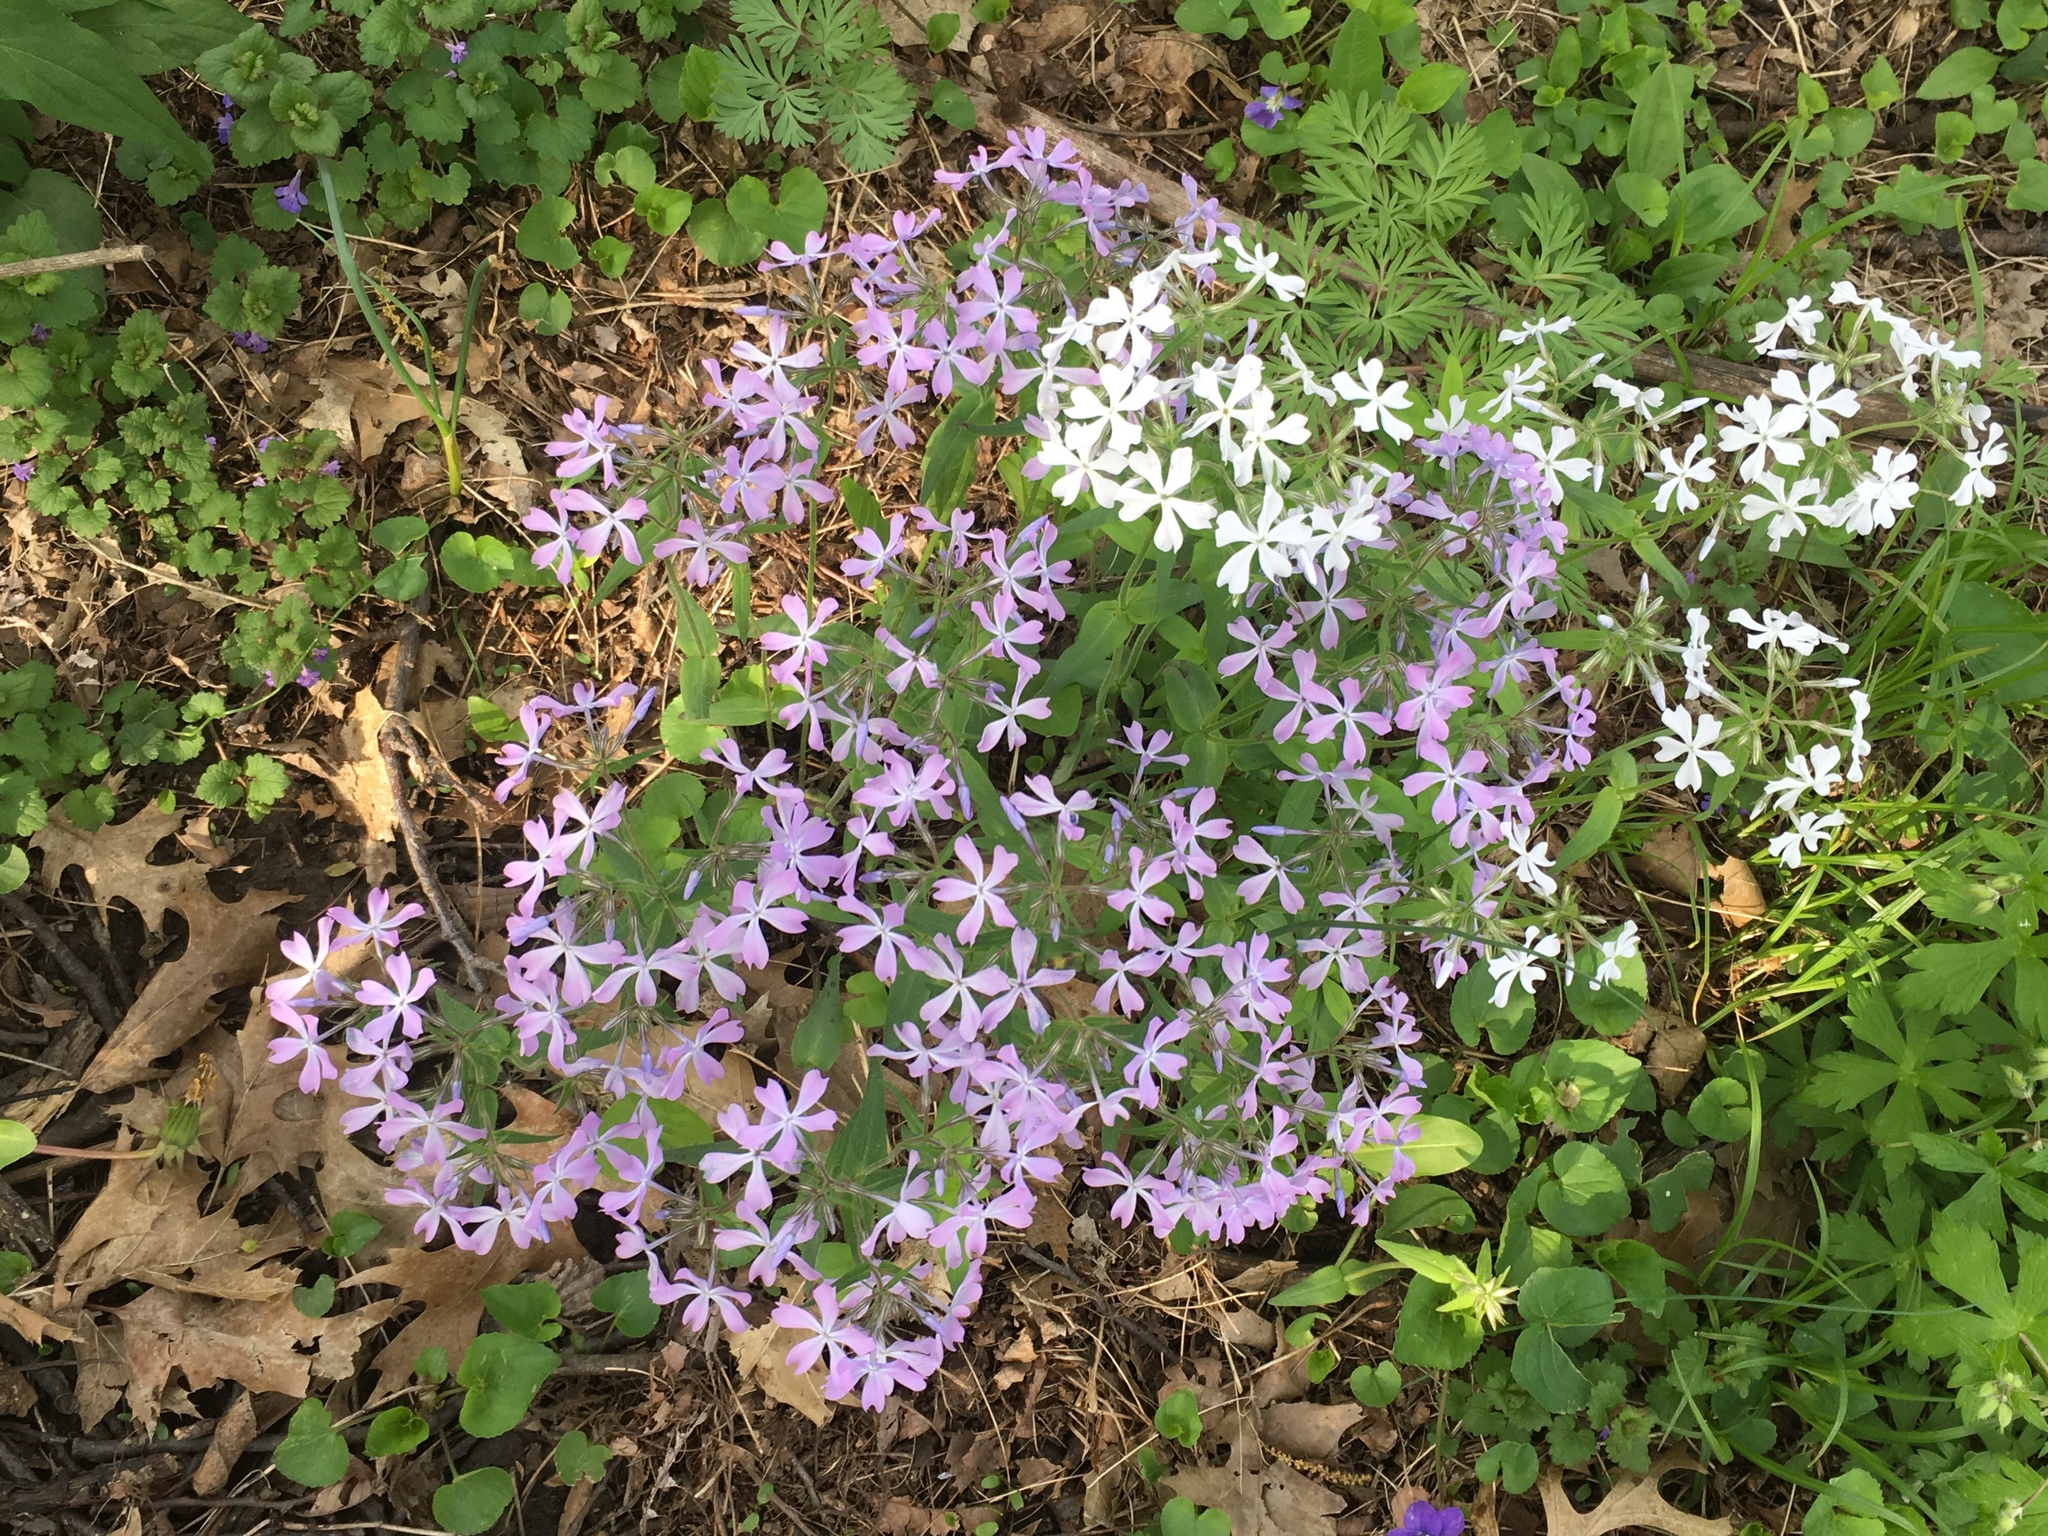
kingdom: Plantae
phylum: Tracheophyta
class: Magnoliopsida
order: Ericales
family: Polemoniaceae
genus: Phlox
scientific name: Phlox divaricata
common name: Blue phlox
